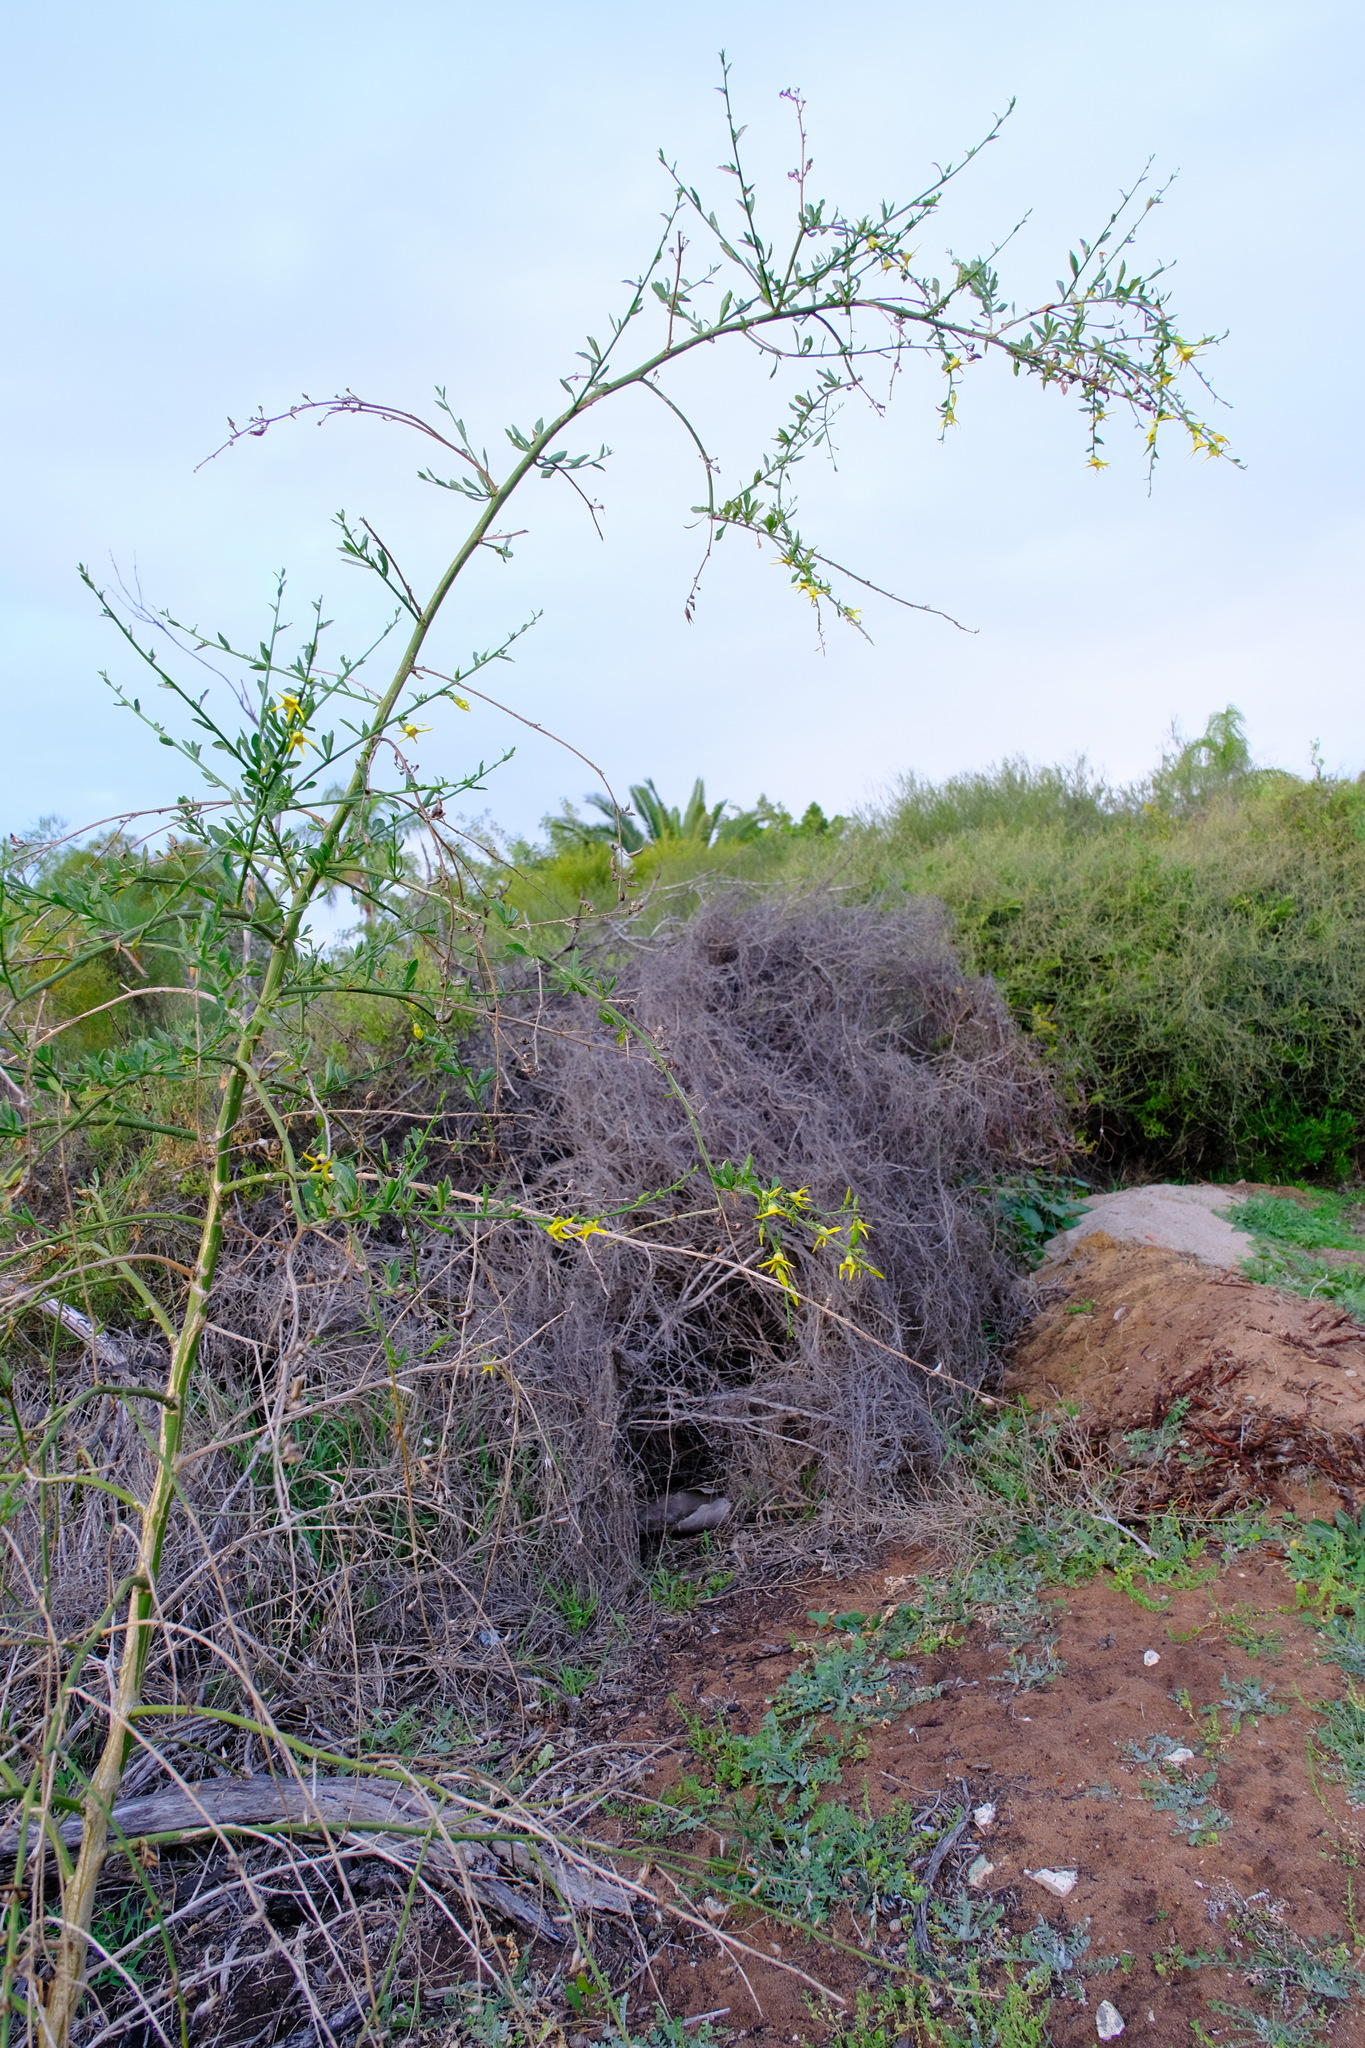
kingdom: Plantae
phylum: Tracheophyta
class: Magnoliopsida
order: Solanales
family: Solanaceae
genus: Anthocercis
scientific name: Anthocercis ilicifolia
